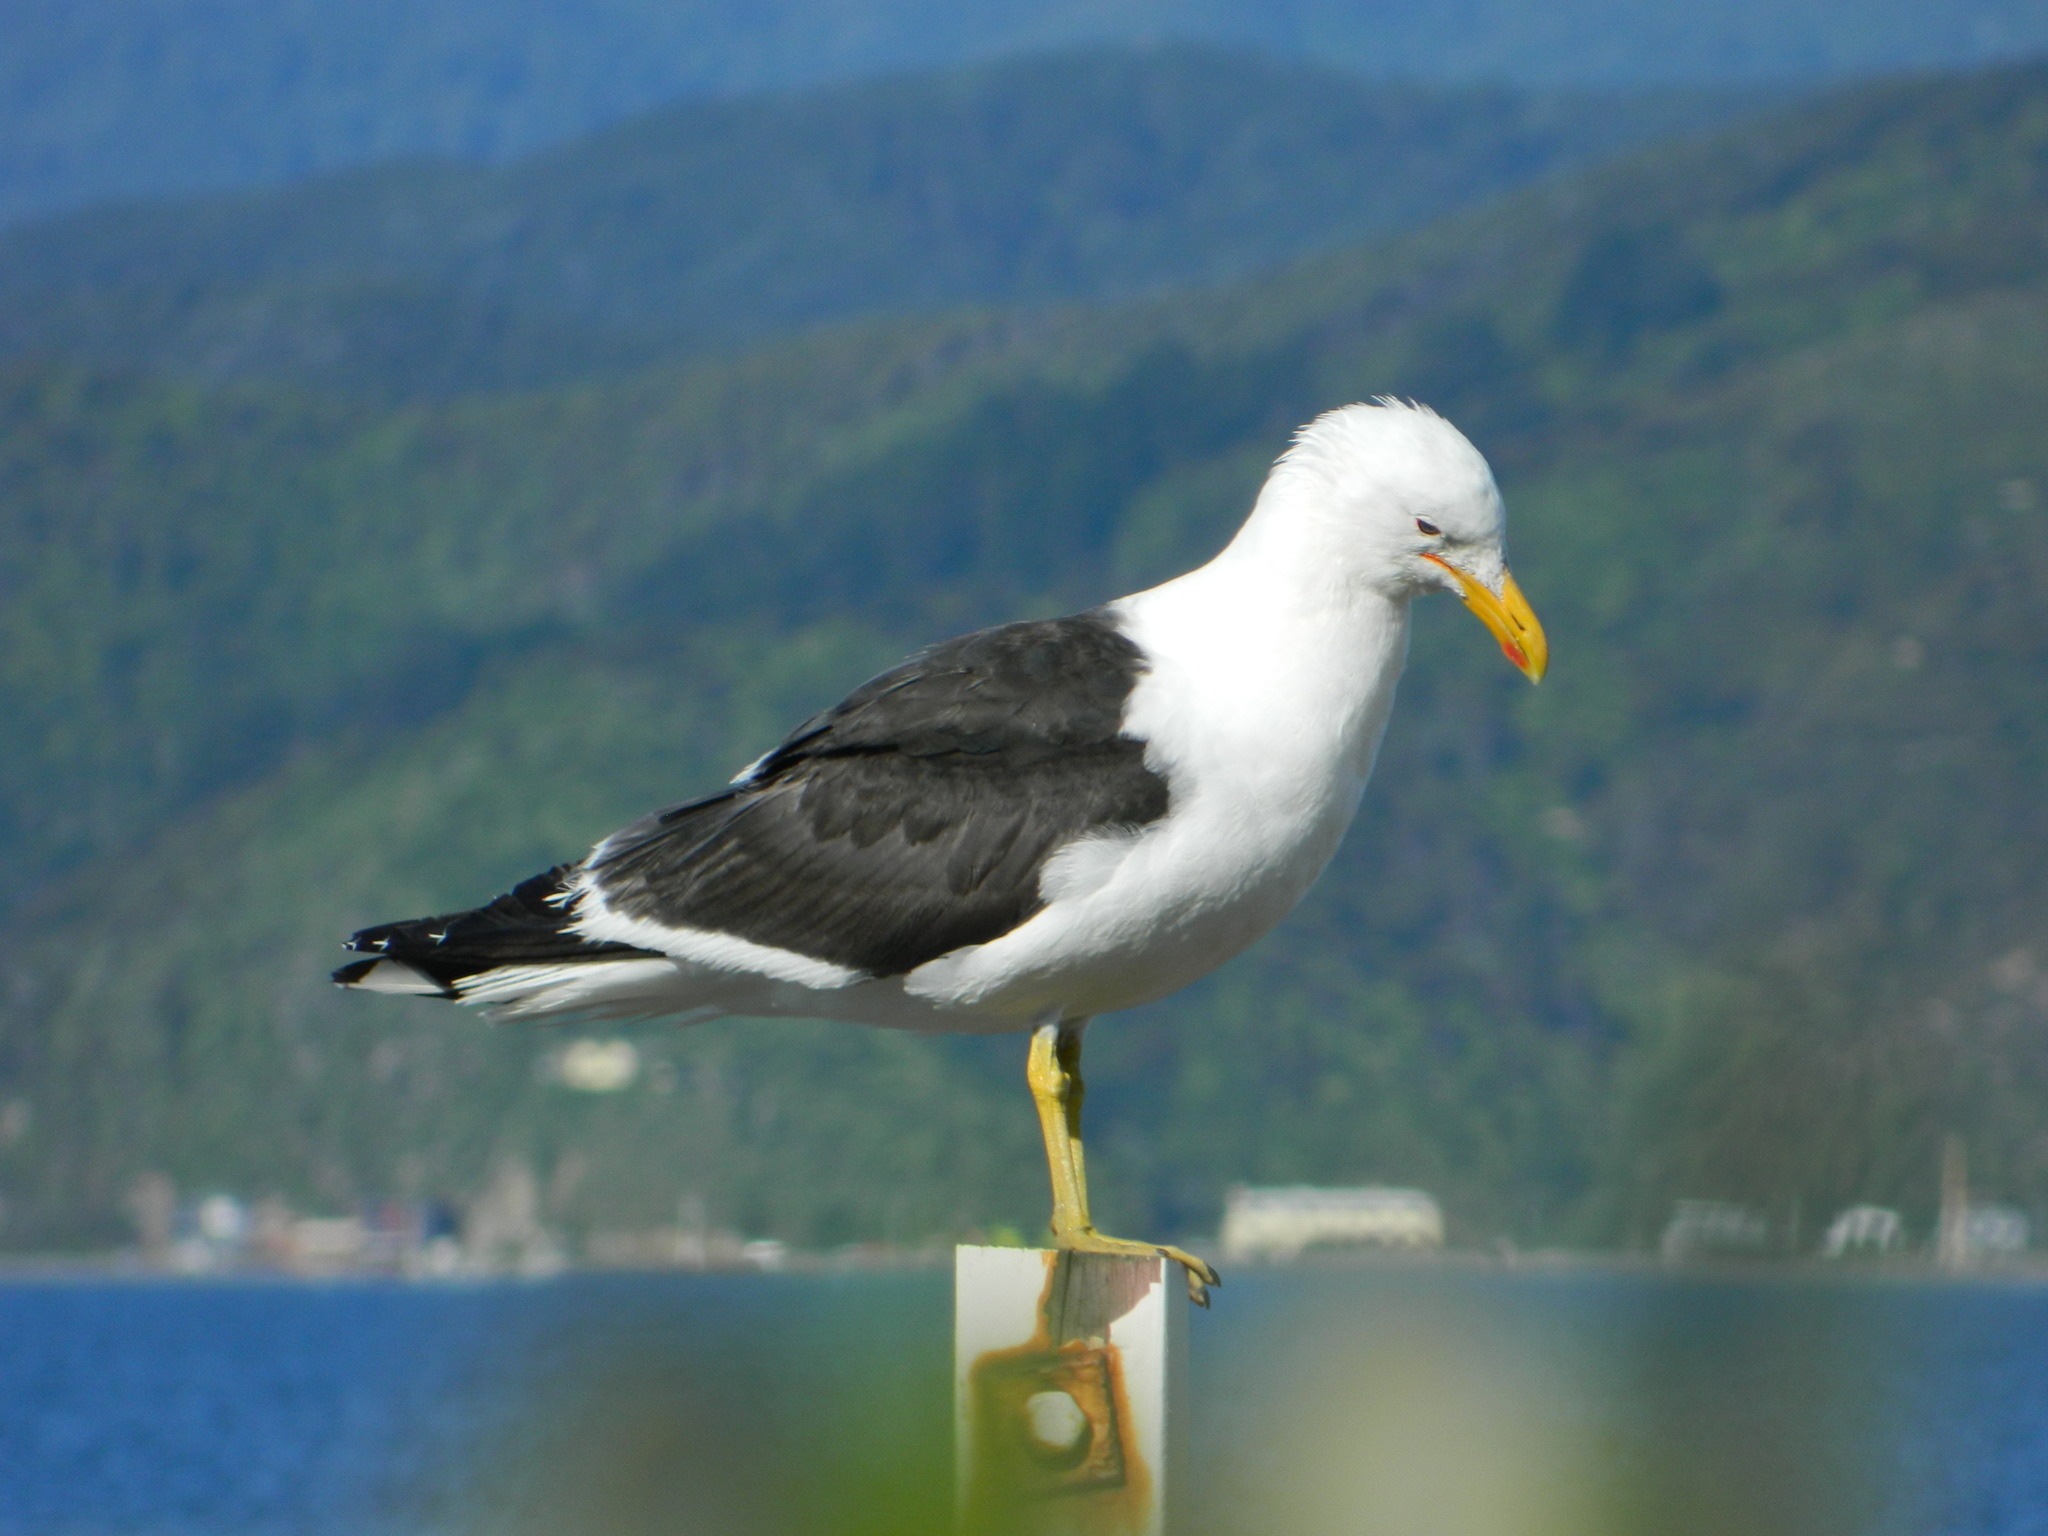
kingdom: Animalia
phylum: Chordata
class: Aves
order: Charadriiformes
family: Laridae
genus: Larus
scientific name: Larus dominicanus
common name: Kelp gull
